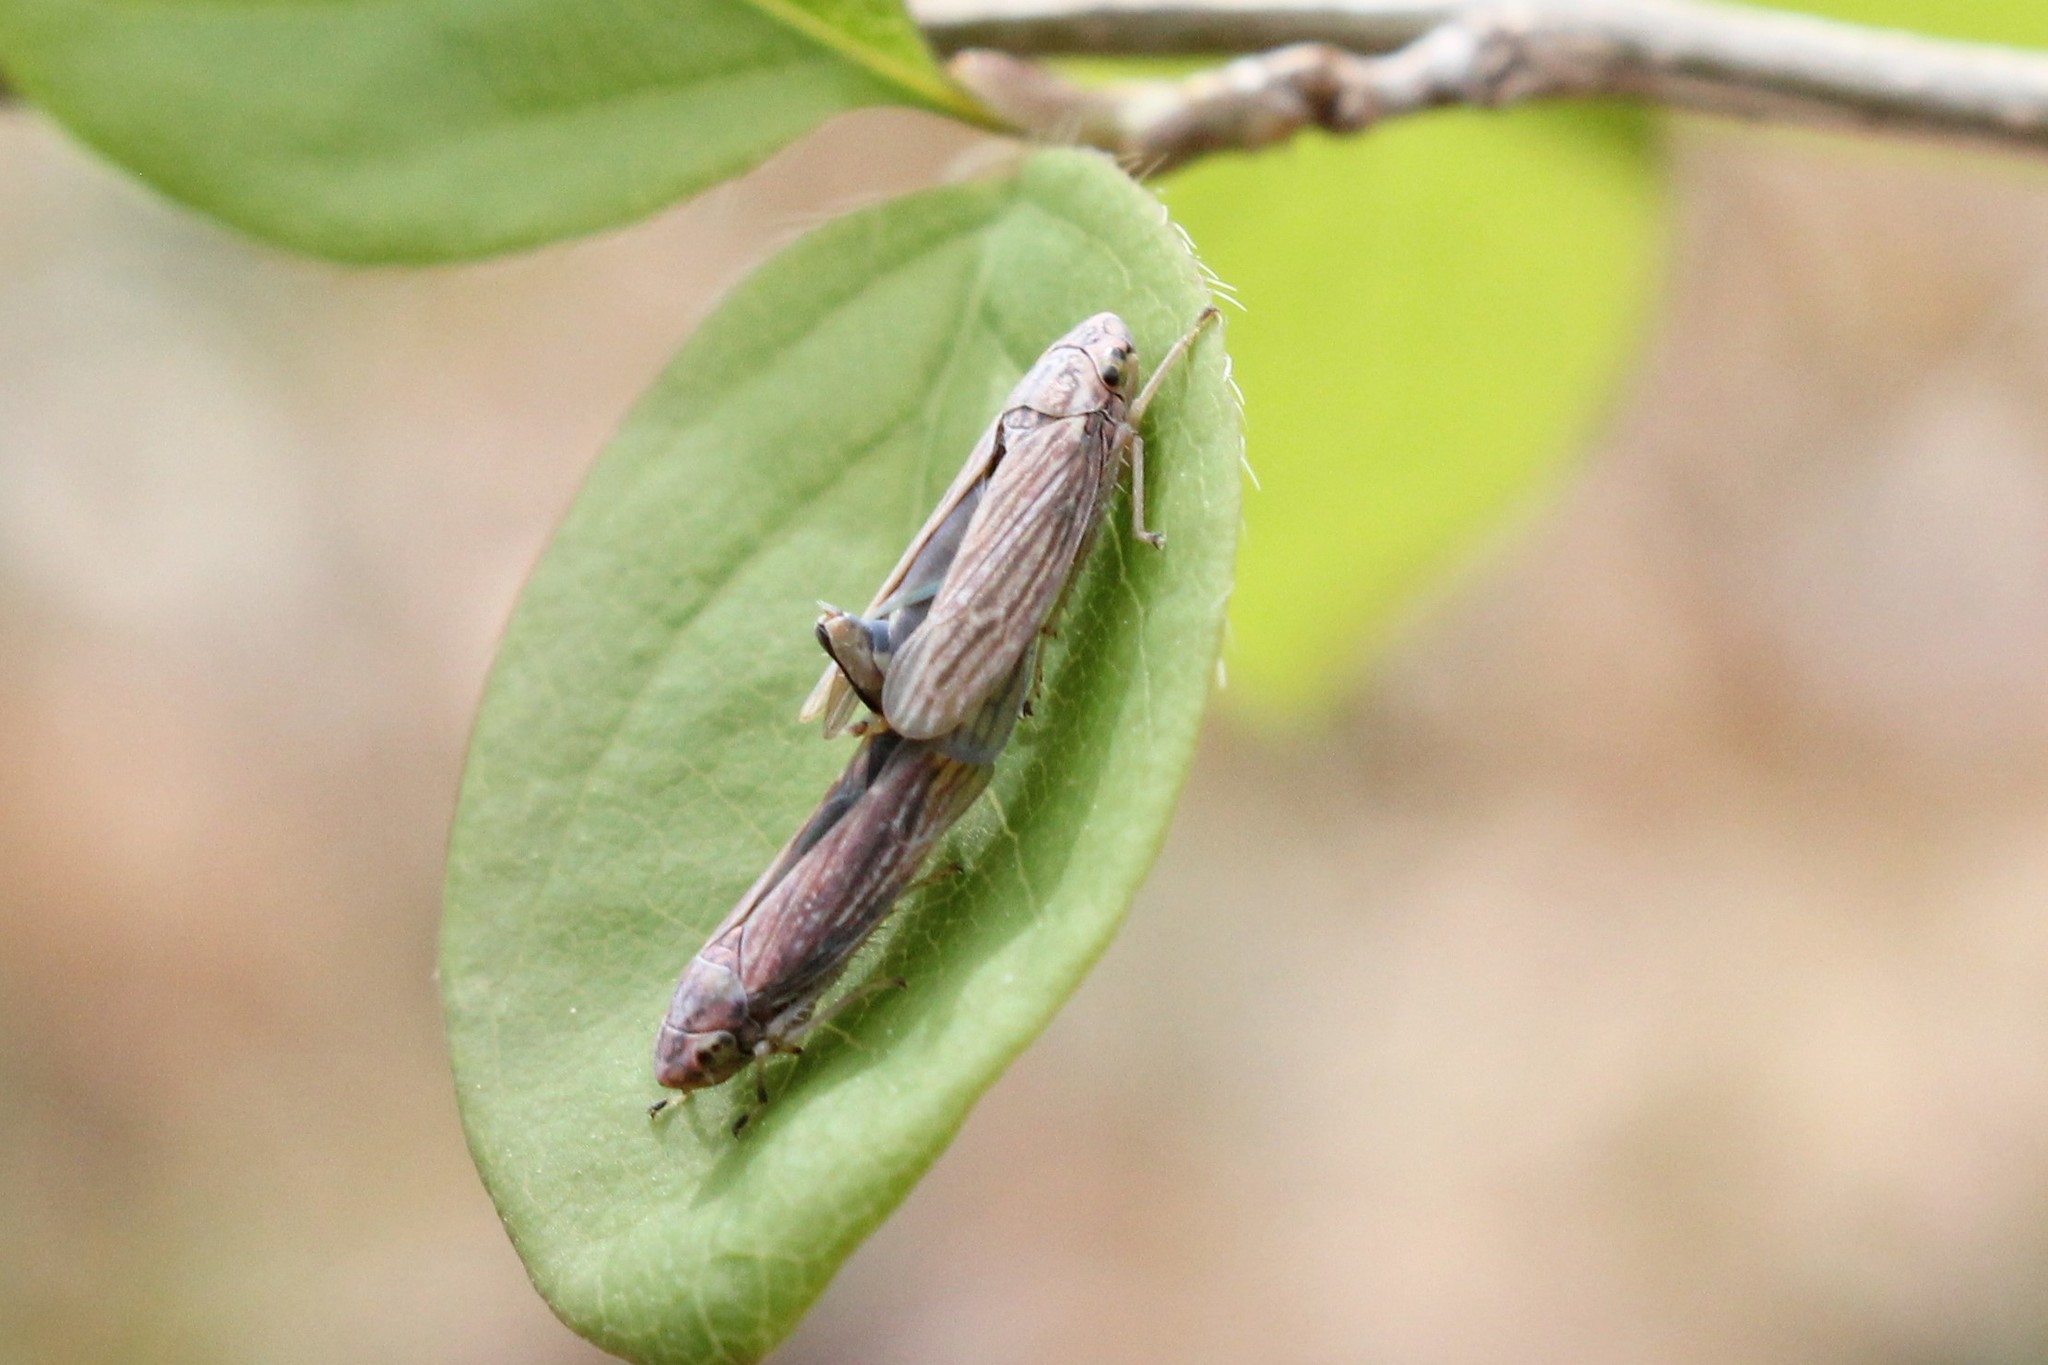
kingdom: Animalia
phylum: Arthropoda
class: Insecta
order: Hemiptera
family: Cicadellidae
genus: Neokolla
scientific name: Neokolla hieroglyphica
